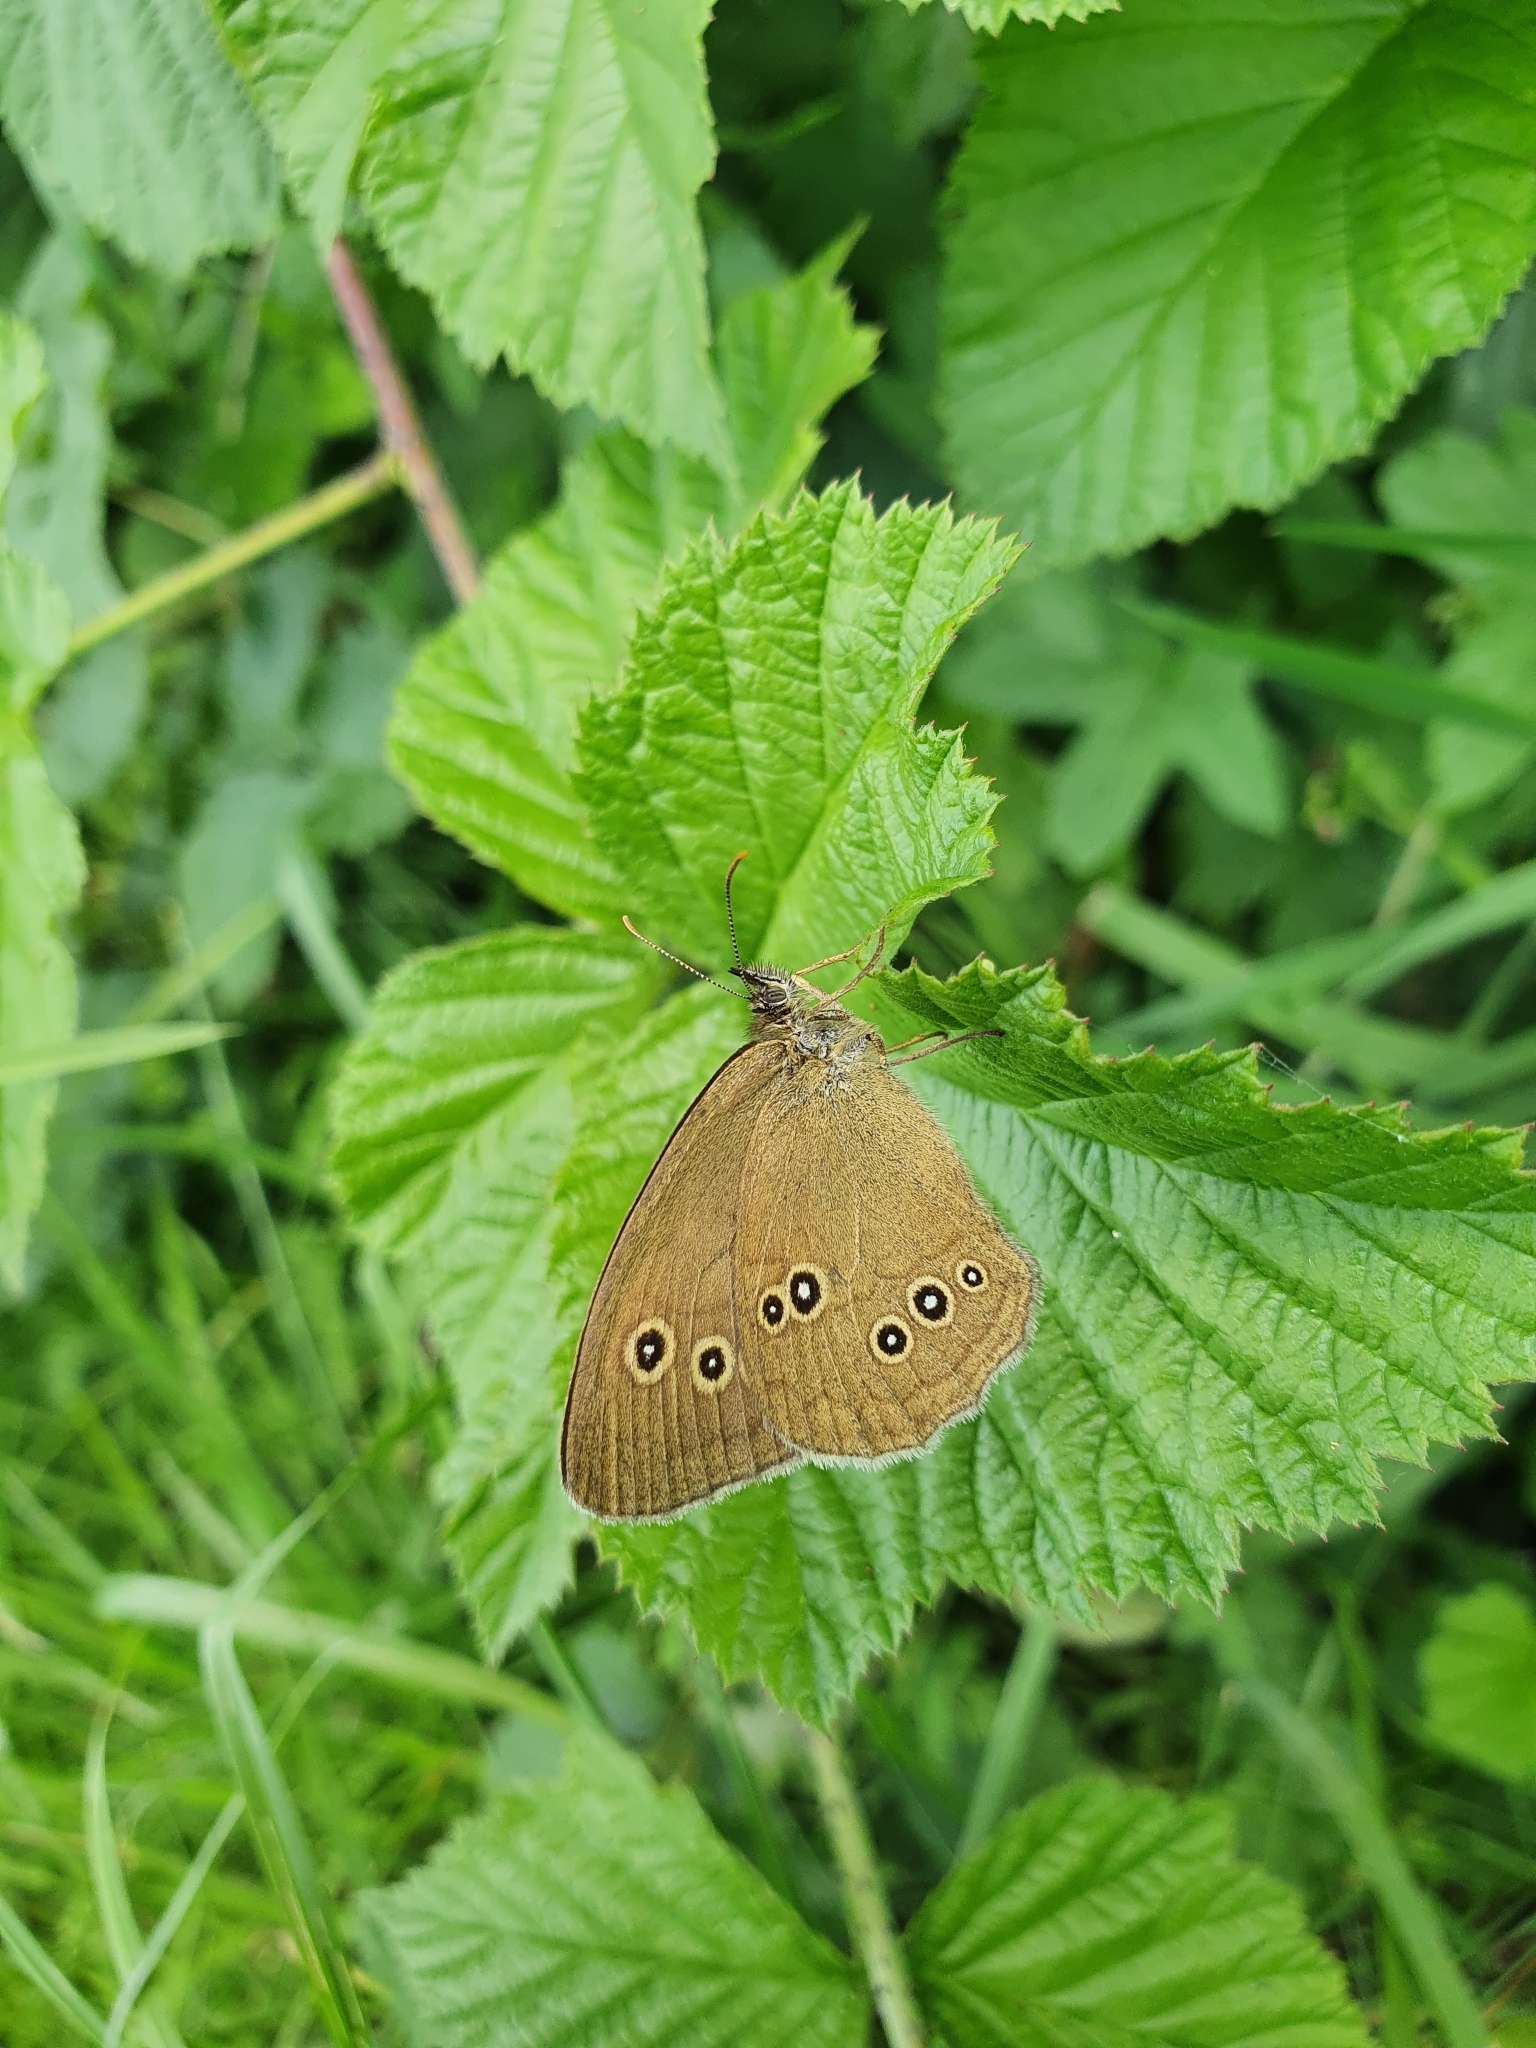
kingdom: Animalia
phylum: Arthropoda
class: Insecta
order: Lepidoptera
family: Nymphalidae
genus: Aphantopus
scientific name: Aphantopus hyperantus
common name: Ringlet
